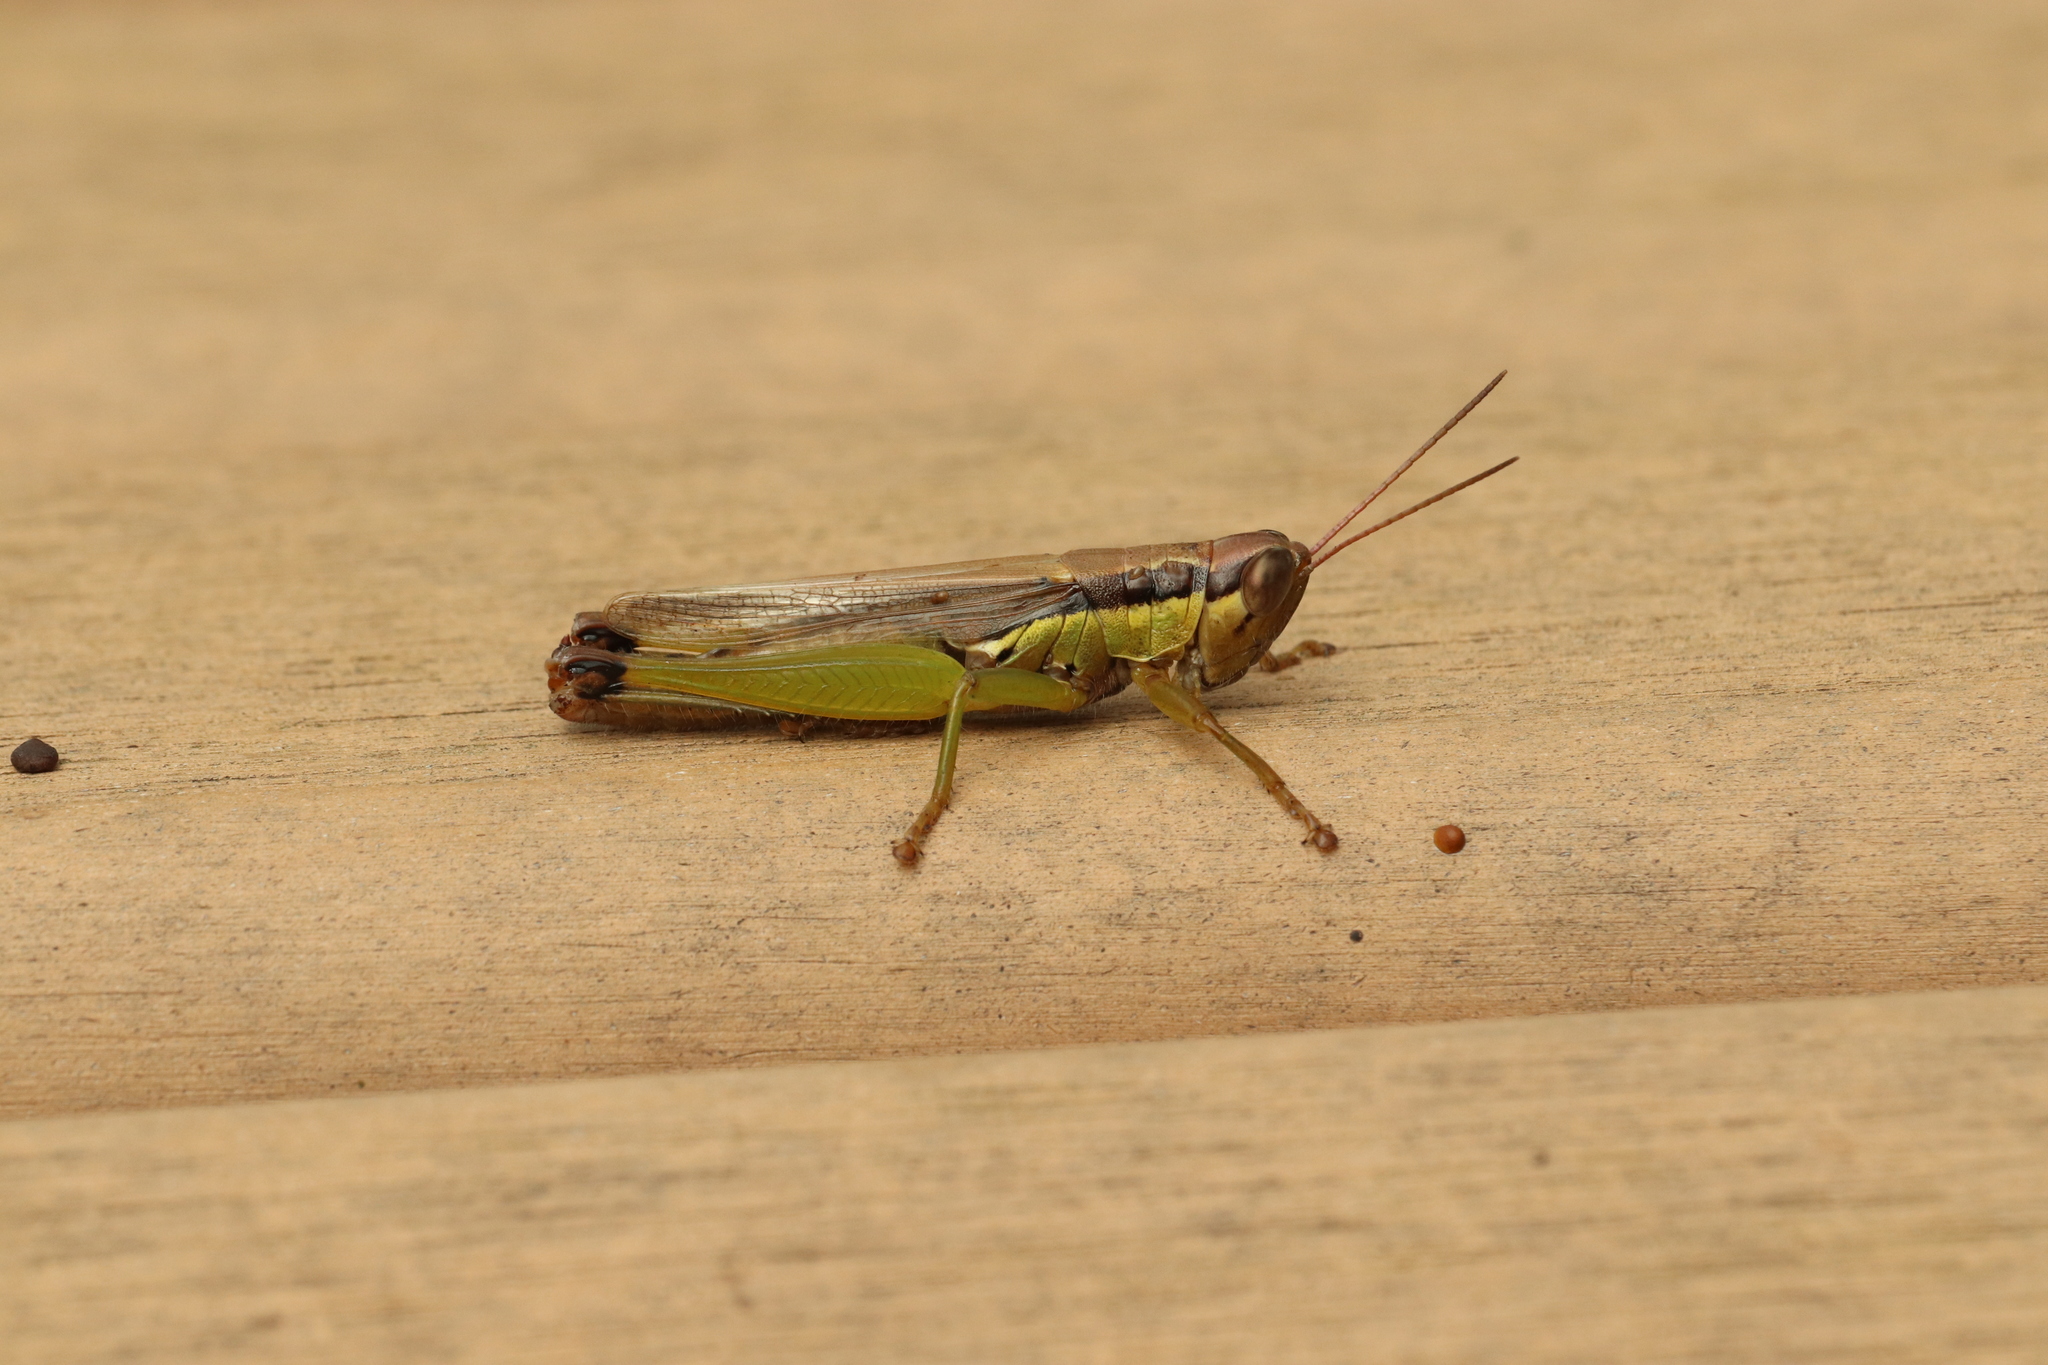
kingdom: Animalia
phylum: Arthropoda
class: Insecta
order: Orthoptera
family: Acrididae
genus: Oxya
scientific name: Oxya yezoensis
